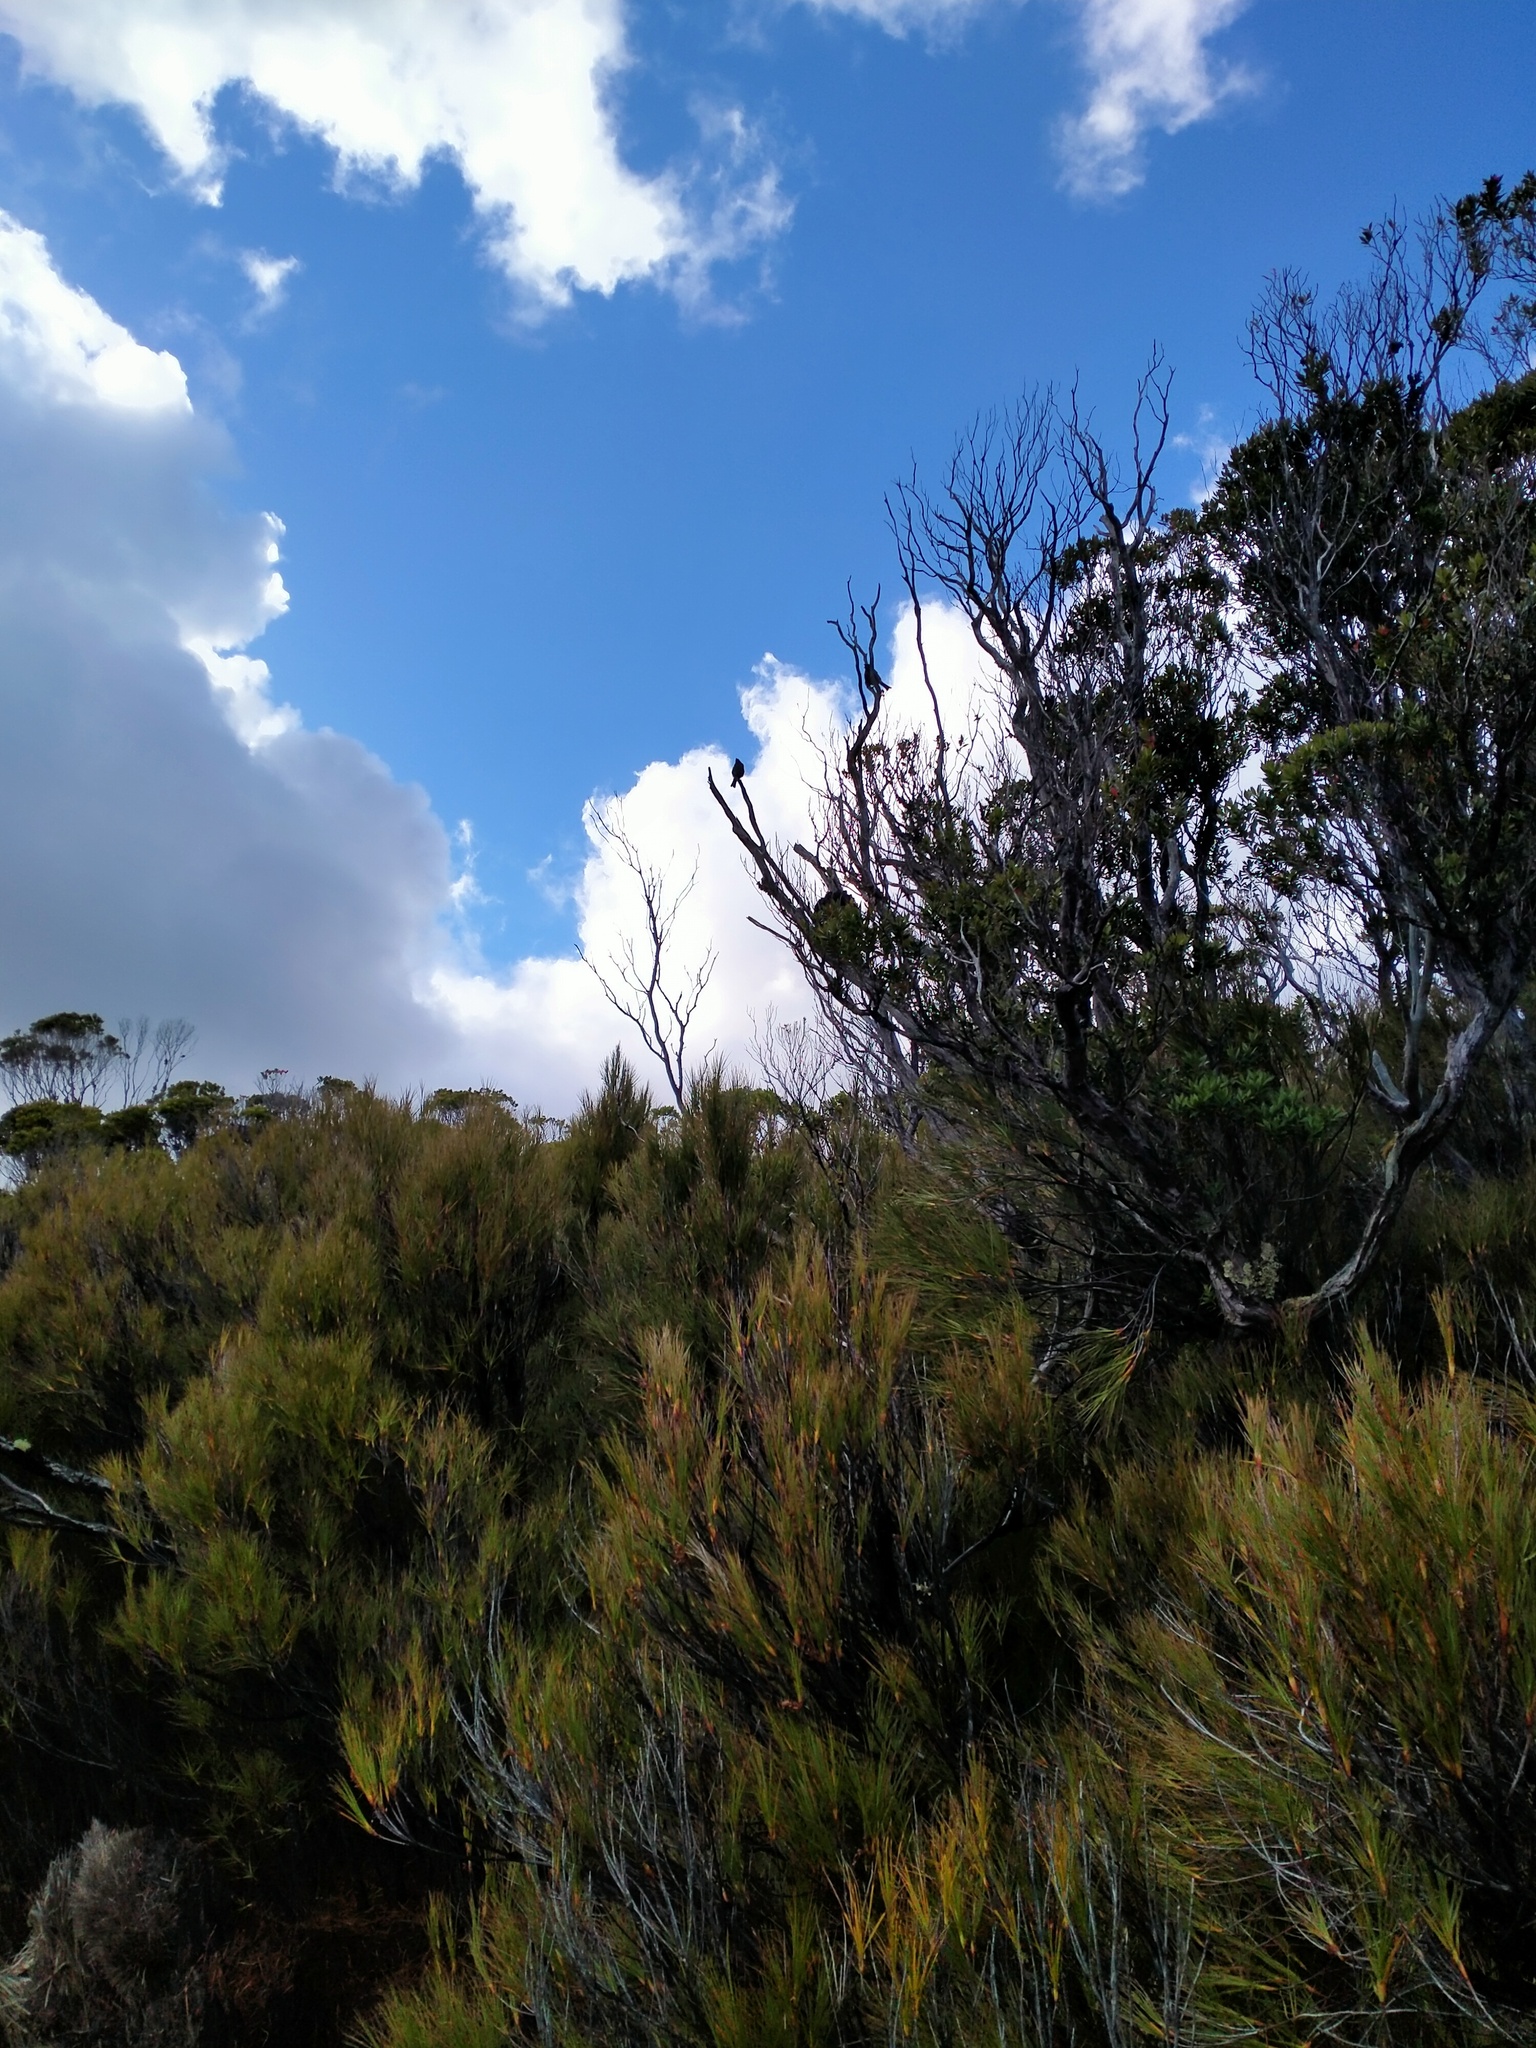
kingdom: Animalia
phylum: Chordata
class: Aves
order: Passeriformes
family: Meliphagidae
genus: Anthornis
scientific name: Anthornis melanura
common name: New zealand bellbird
